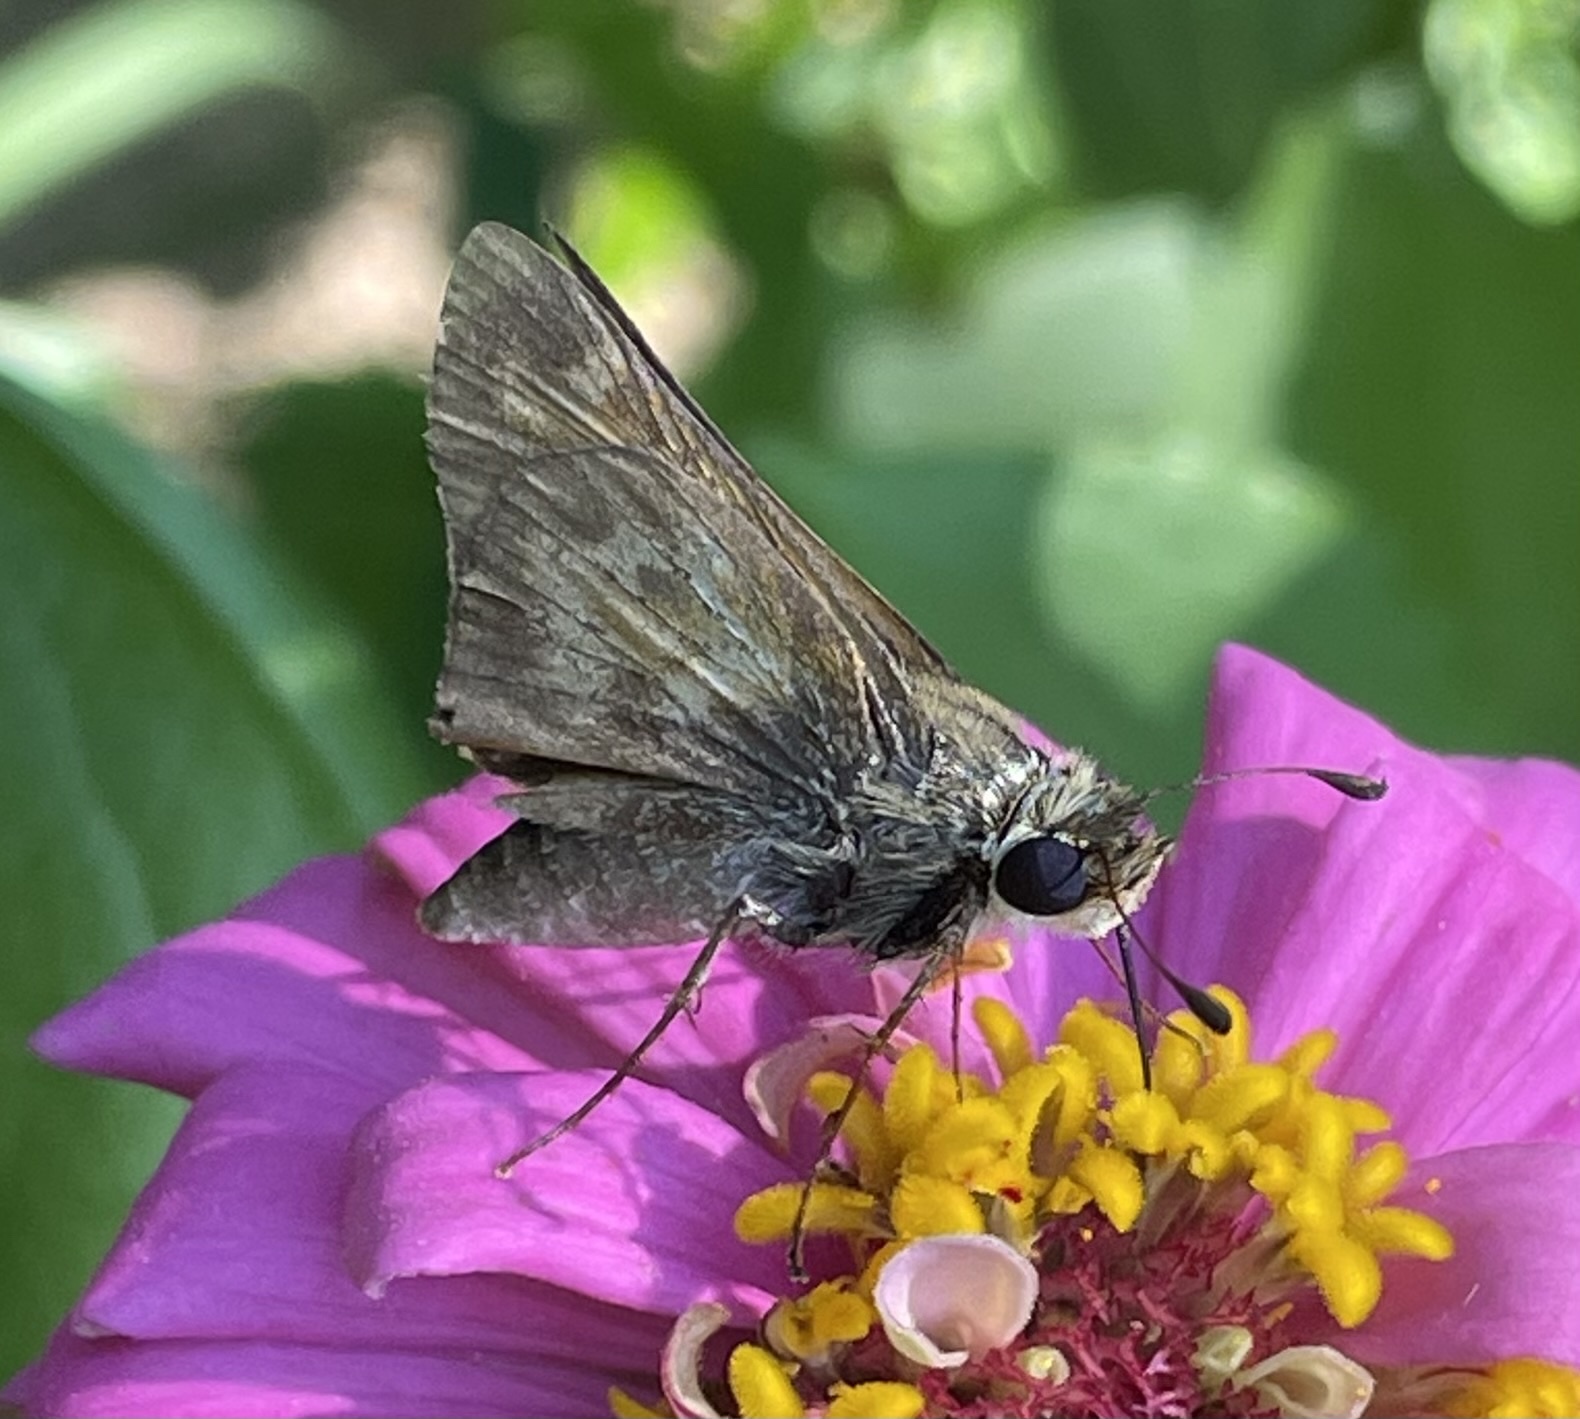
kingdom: Animalia
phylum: Arthropoda
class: Insecta
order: Lepidoptera
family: Hesperiidae
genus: Atalopedes
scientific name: Atalopedes
